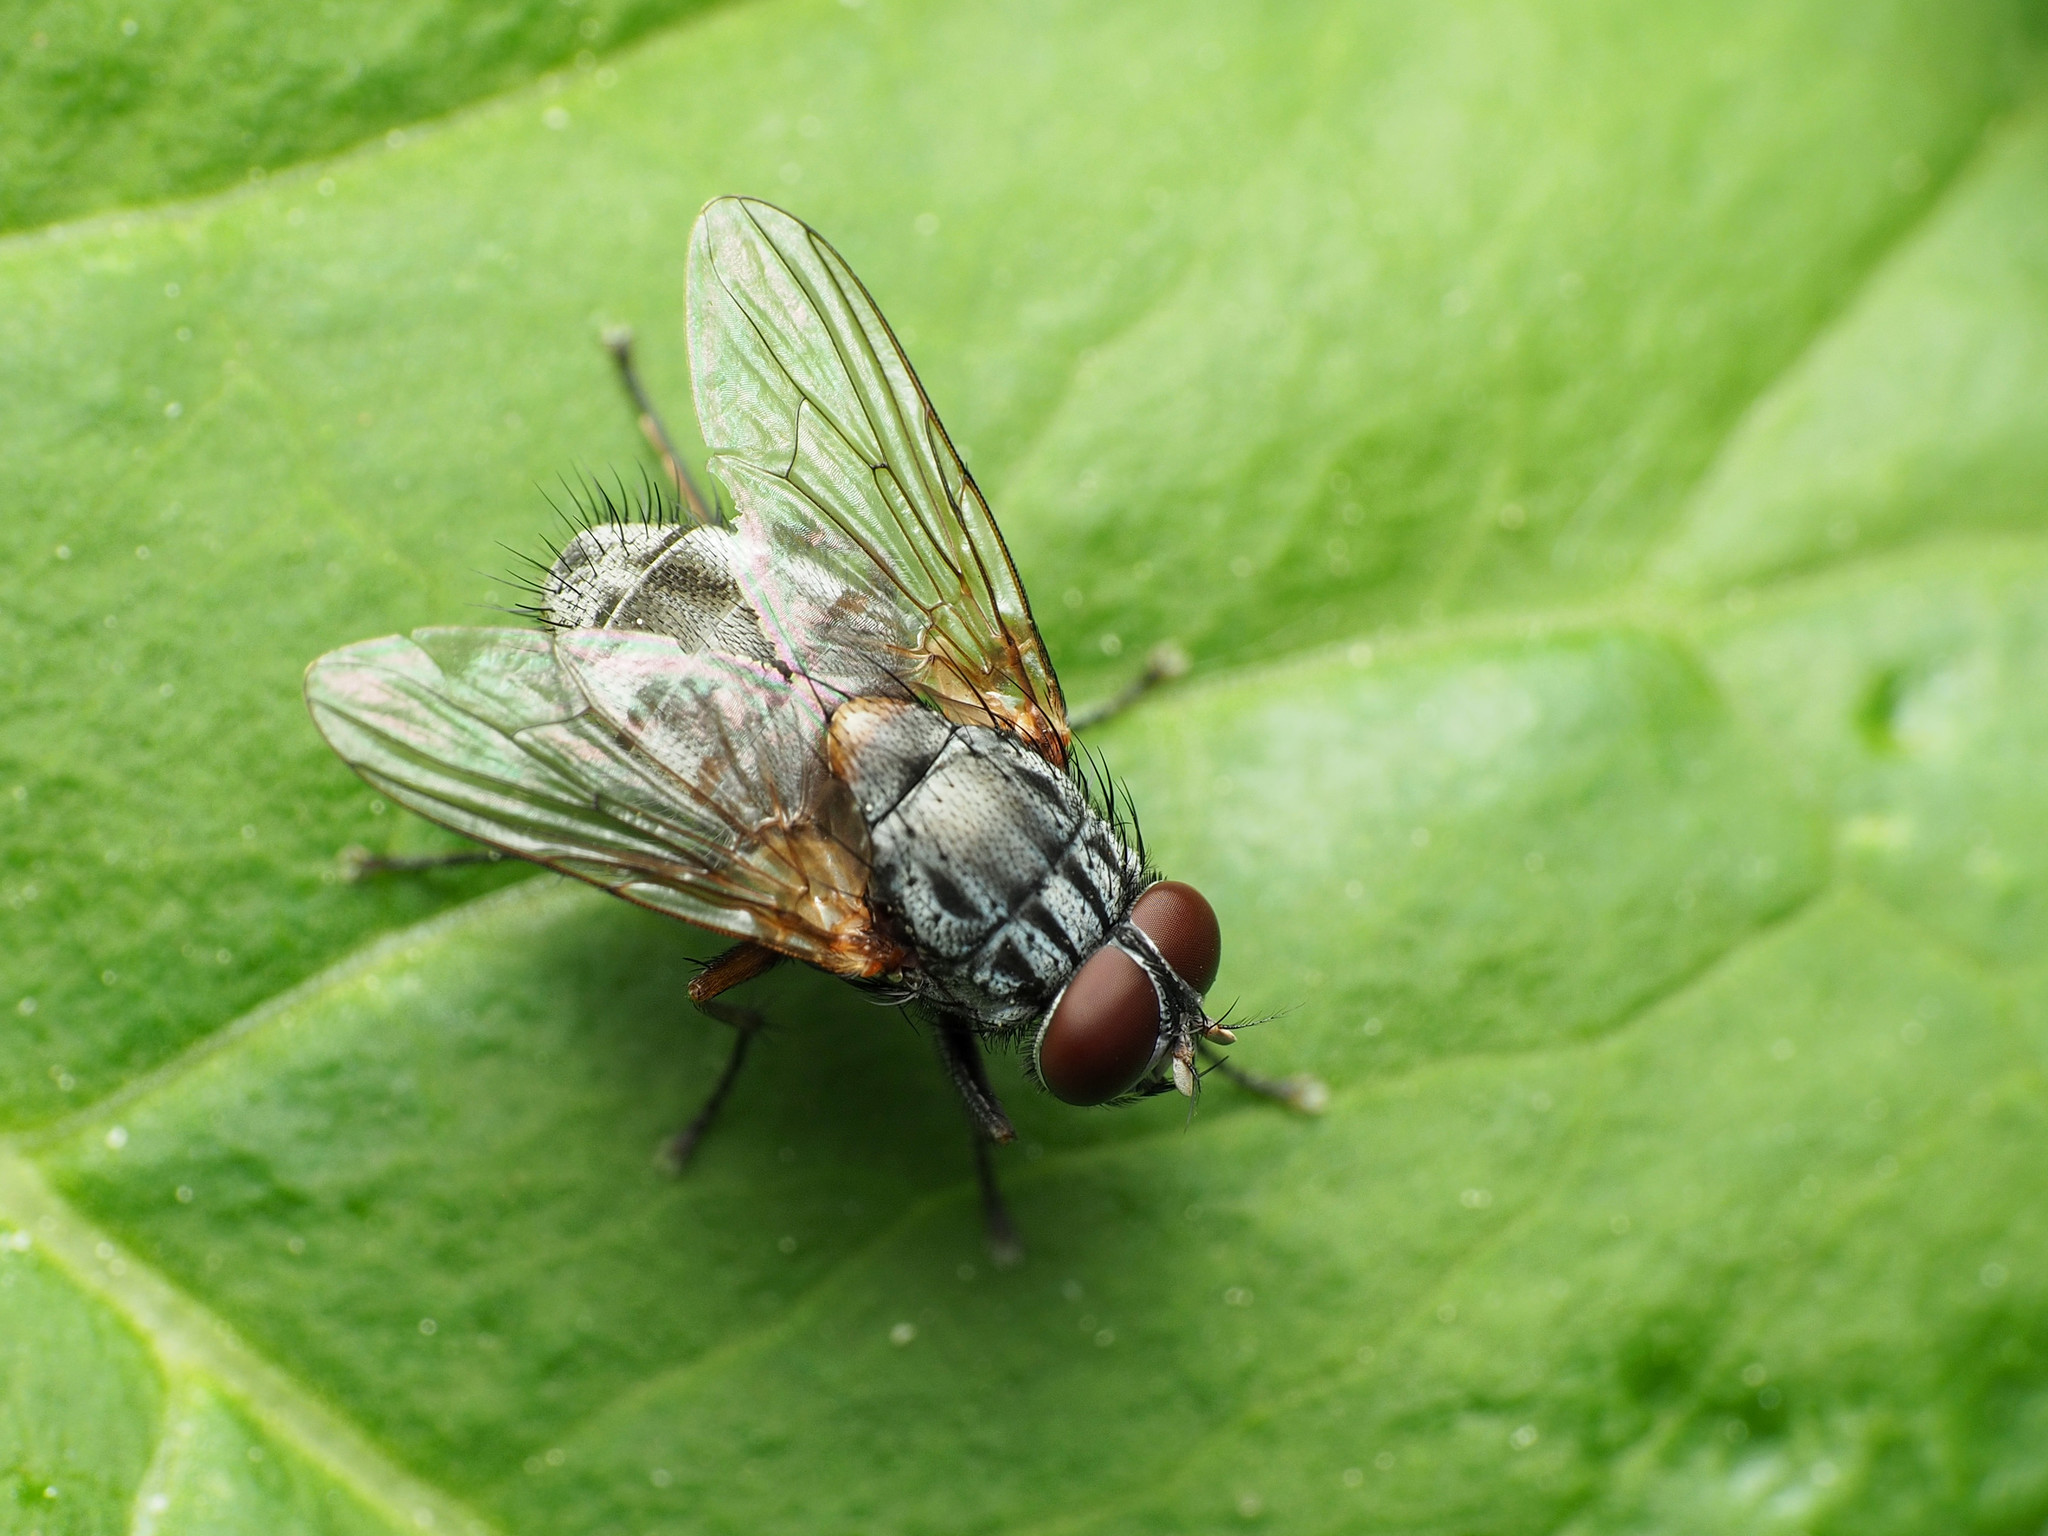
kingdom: Animalia
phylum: Arthropoda
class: Insecta
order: Diptera
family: Muscidae
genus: Muscina
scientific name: Muscina stabulans
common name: False stable fly
